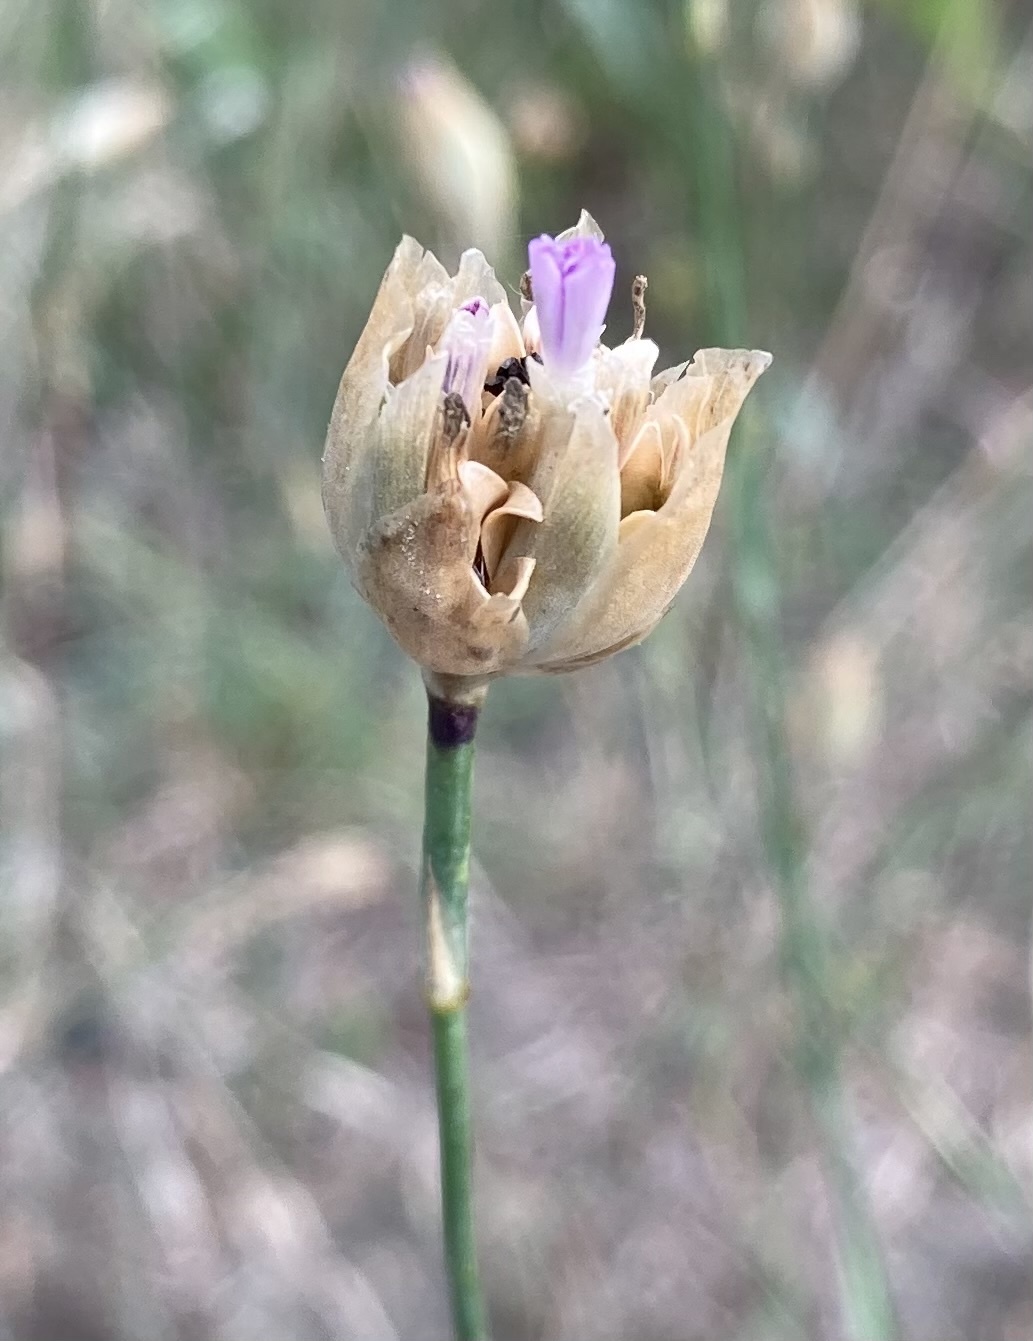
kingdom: Plantae
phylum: Tracheophyta
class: Magnoliopsida
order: Caryophyllales
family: Caryophyllaceae
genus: Petrorhagia
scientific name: Petrorhagia prolifera
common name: Proliferous pink
